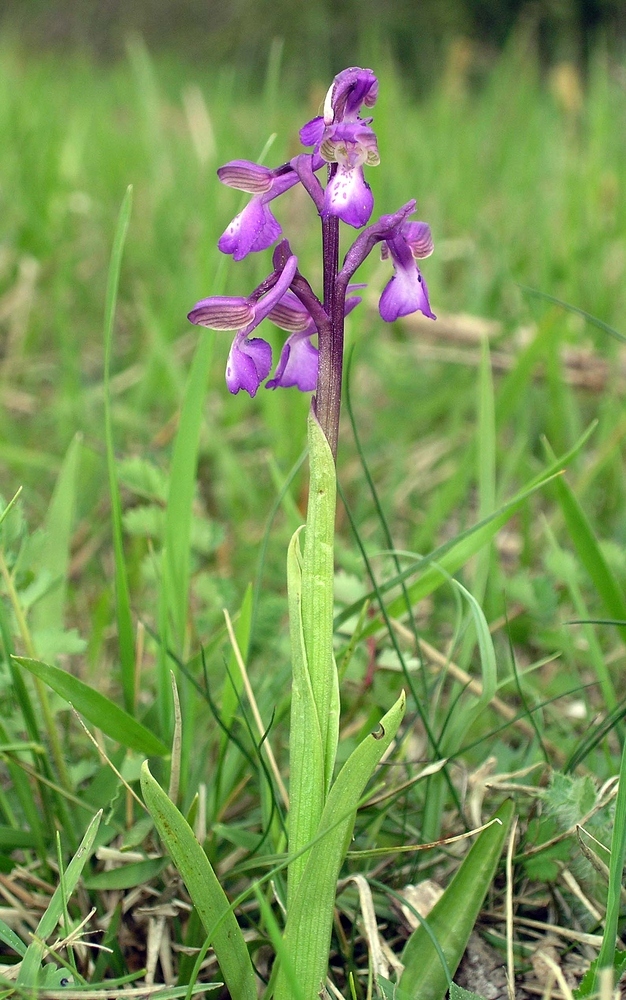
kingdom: Plantae
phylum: Tracheophyta
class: Liliopsida
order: Asparagales
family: Orchidaceae
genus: Anacamptis
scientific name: Anacamptis morio
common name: Green-winged orchid
